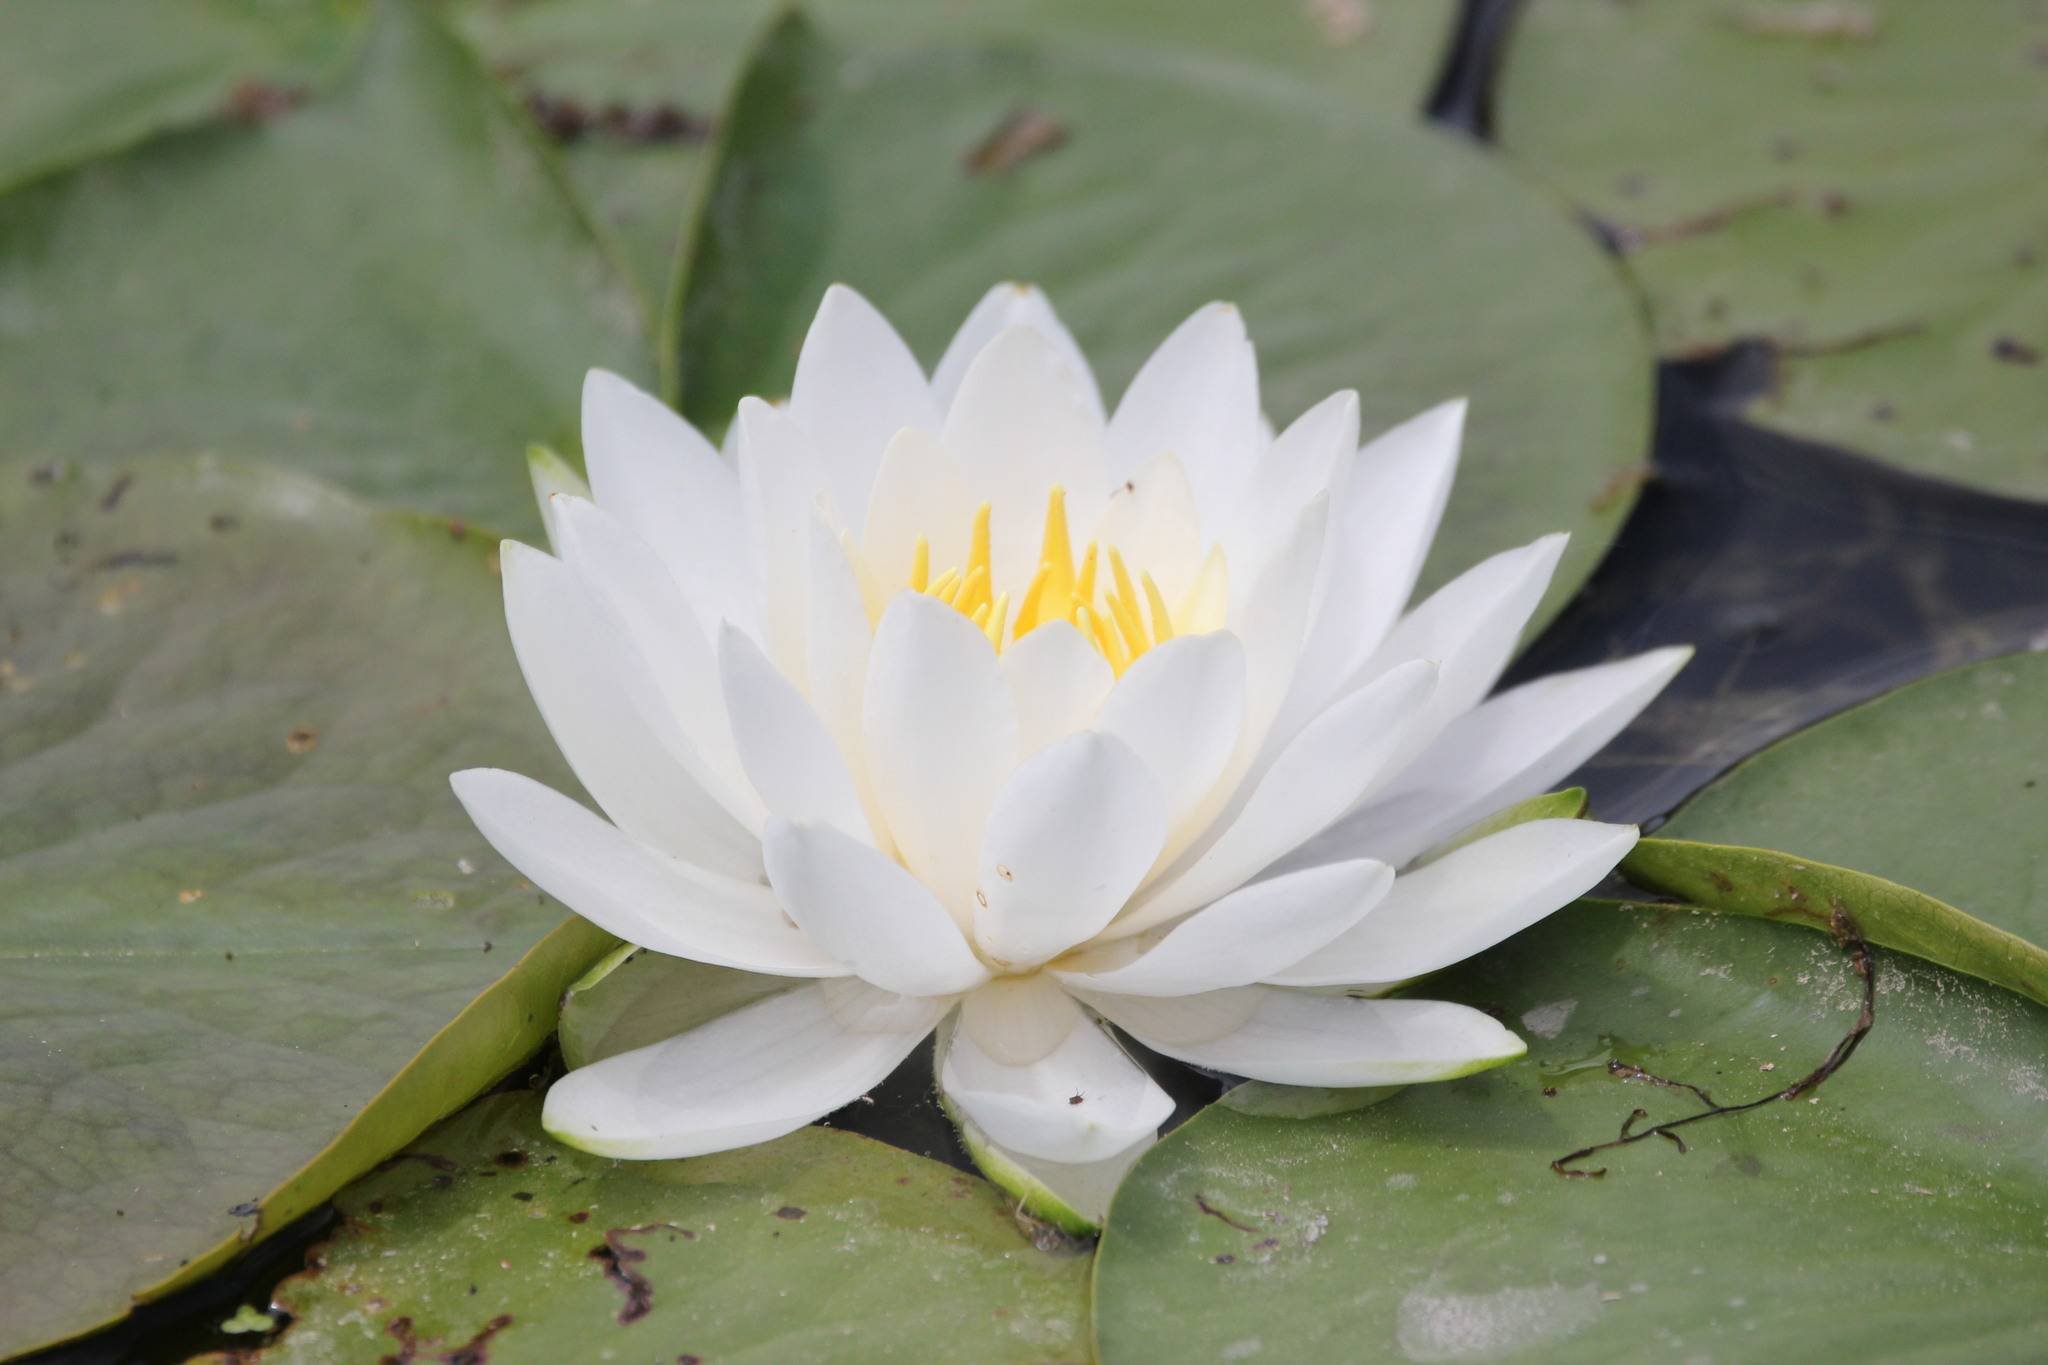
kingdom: Plantae
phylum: Tracheophyta
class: Magnoliopsida
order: Nymphaeales
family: Nymphaeaceae
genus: Nymphaea
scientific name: Nymphaea odorata
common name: Fragrant water-lily
